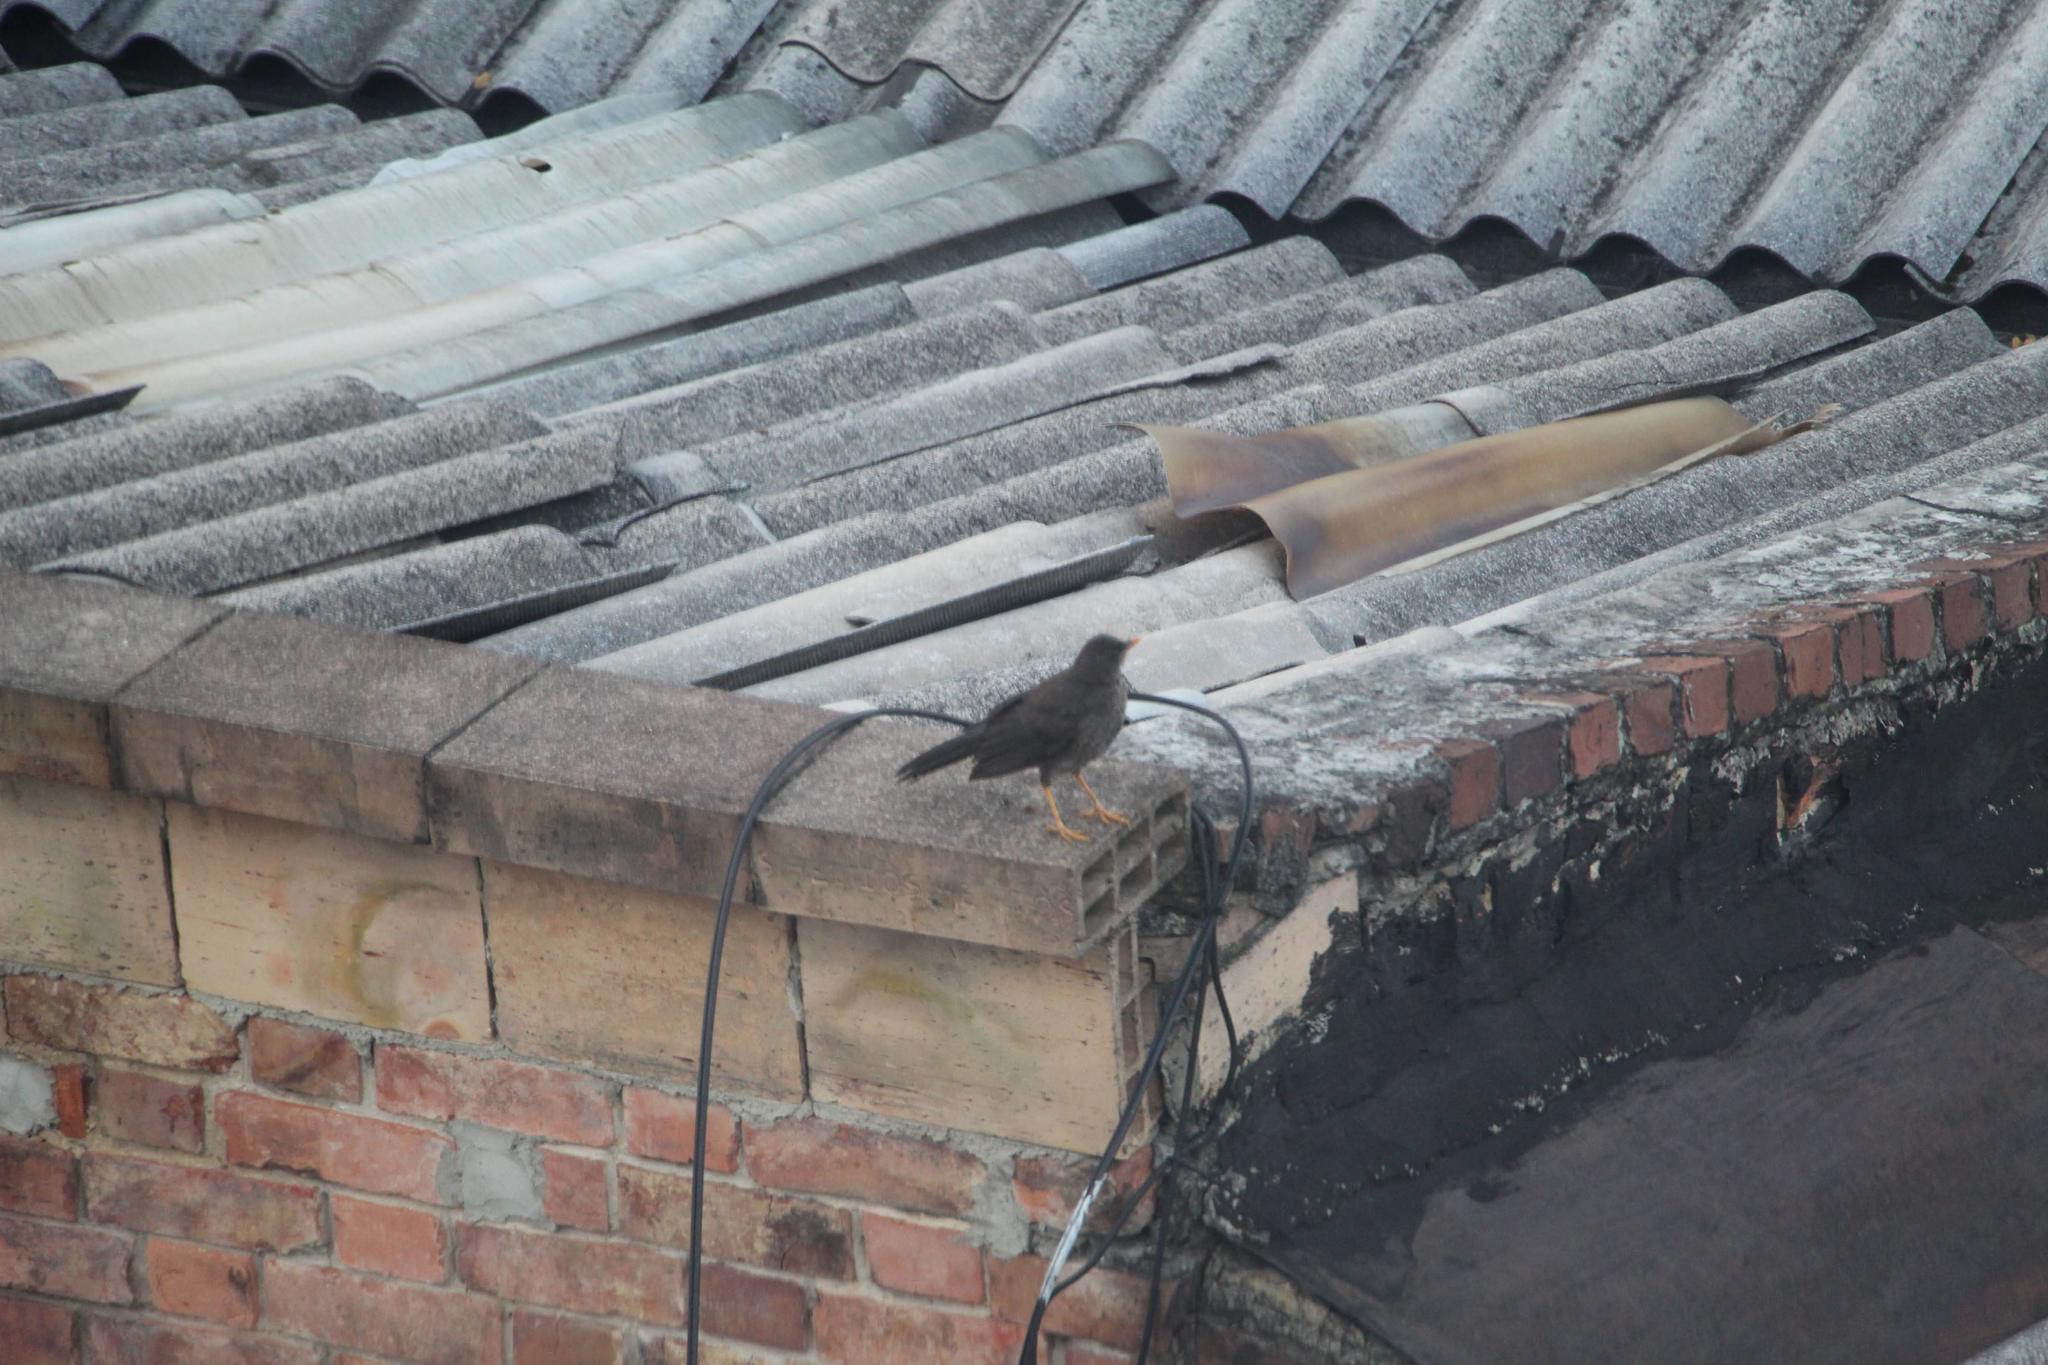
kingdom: Animalia
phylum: Chordata
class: Aves
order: Passeriformes
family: Turdidae
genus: Turdus
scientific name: Turdus fuscater
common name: Great thrush
